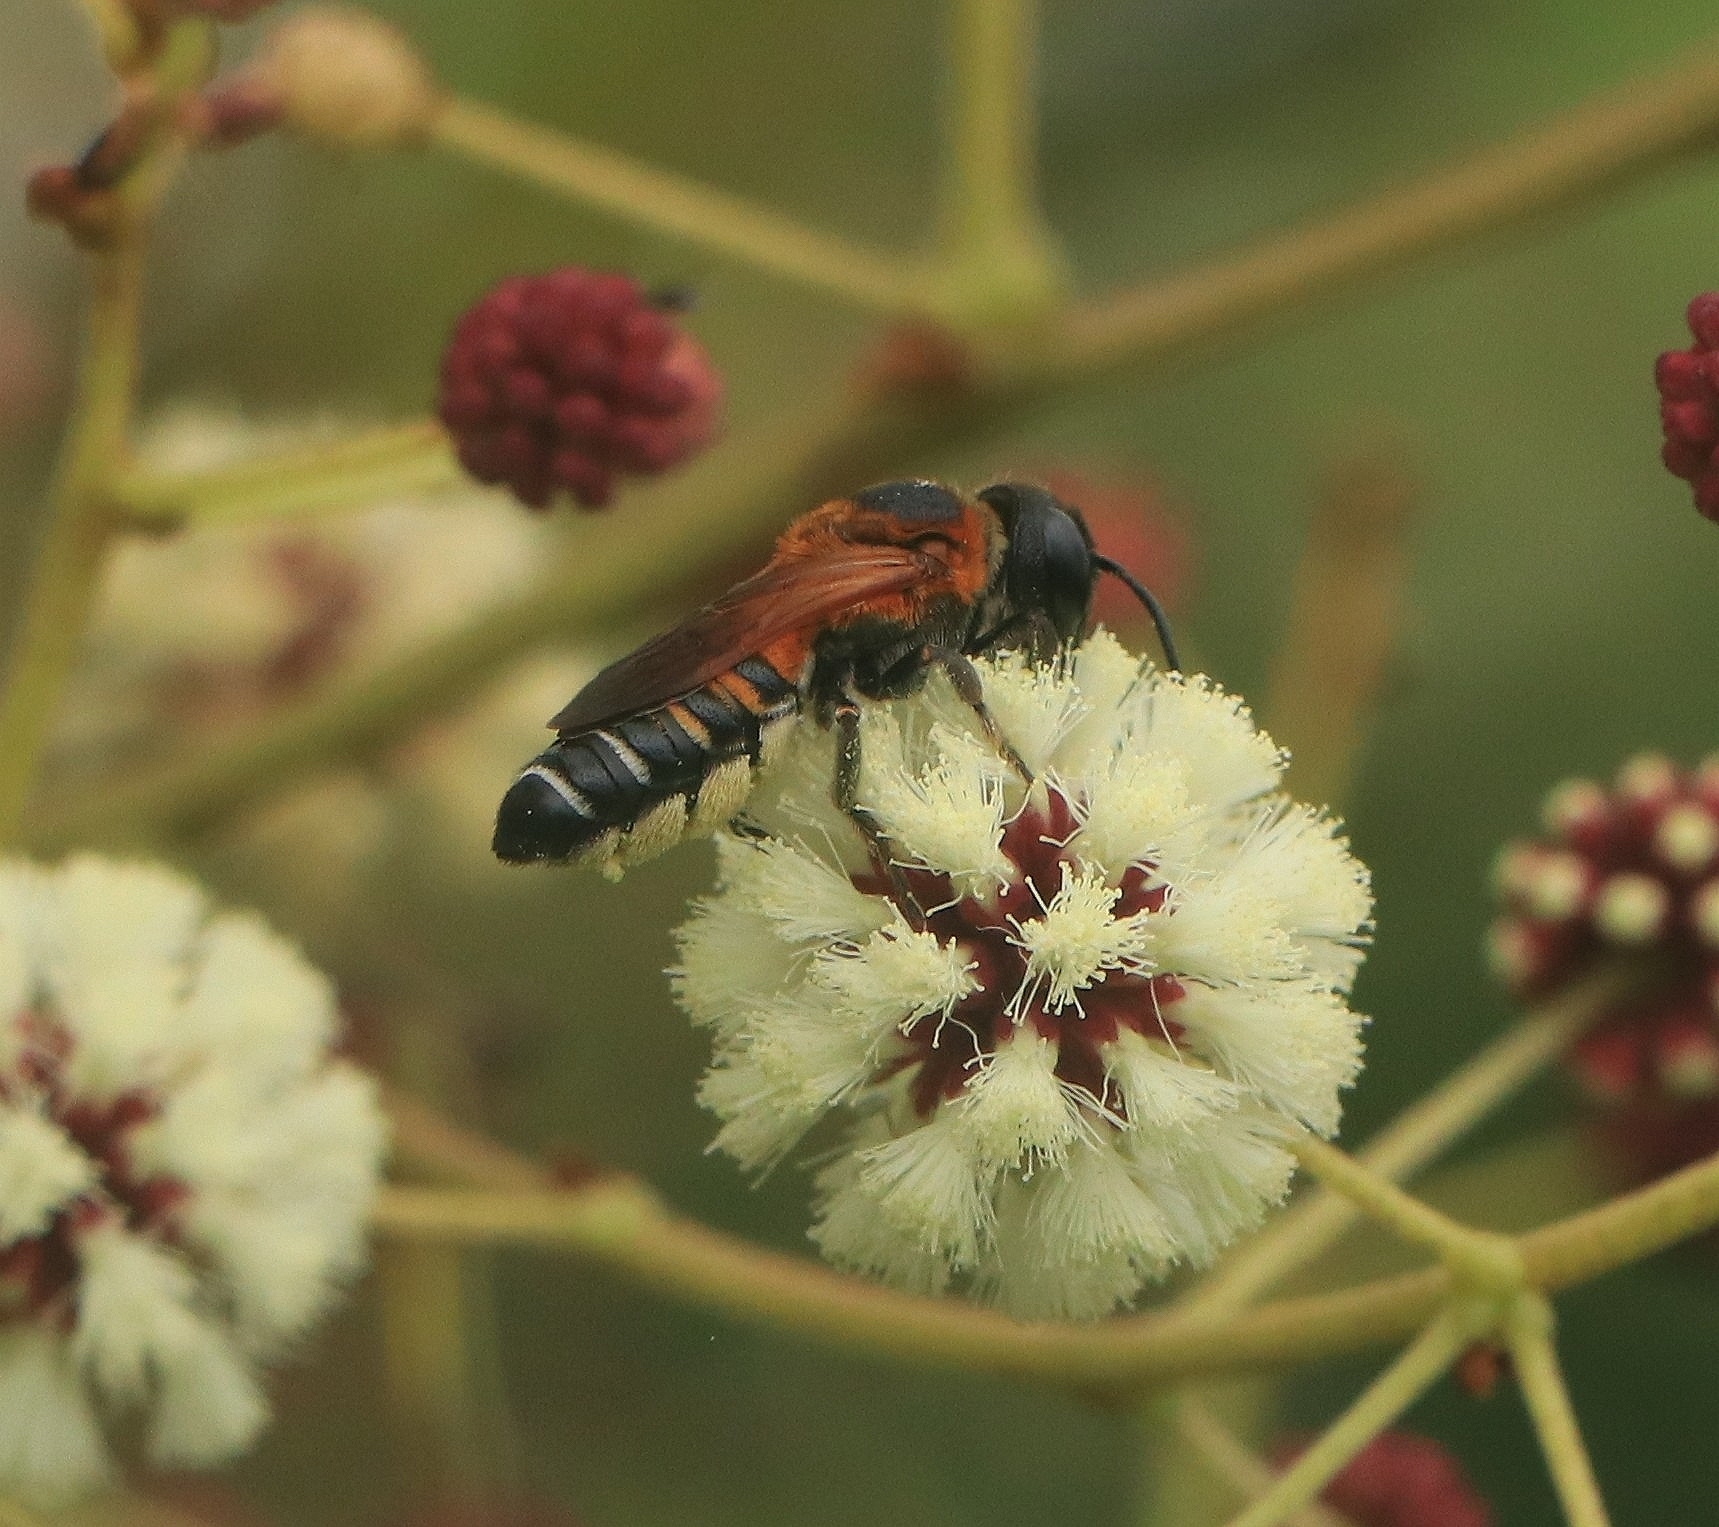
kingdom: Animalia
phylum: Arthropoda
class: Insecta
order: Hymenoptera
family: Megachilidae
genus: Megachile
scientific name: Megachile lerma
